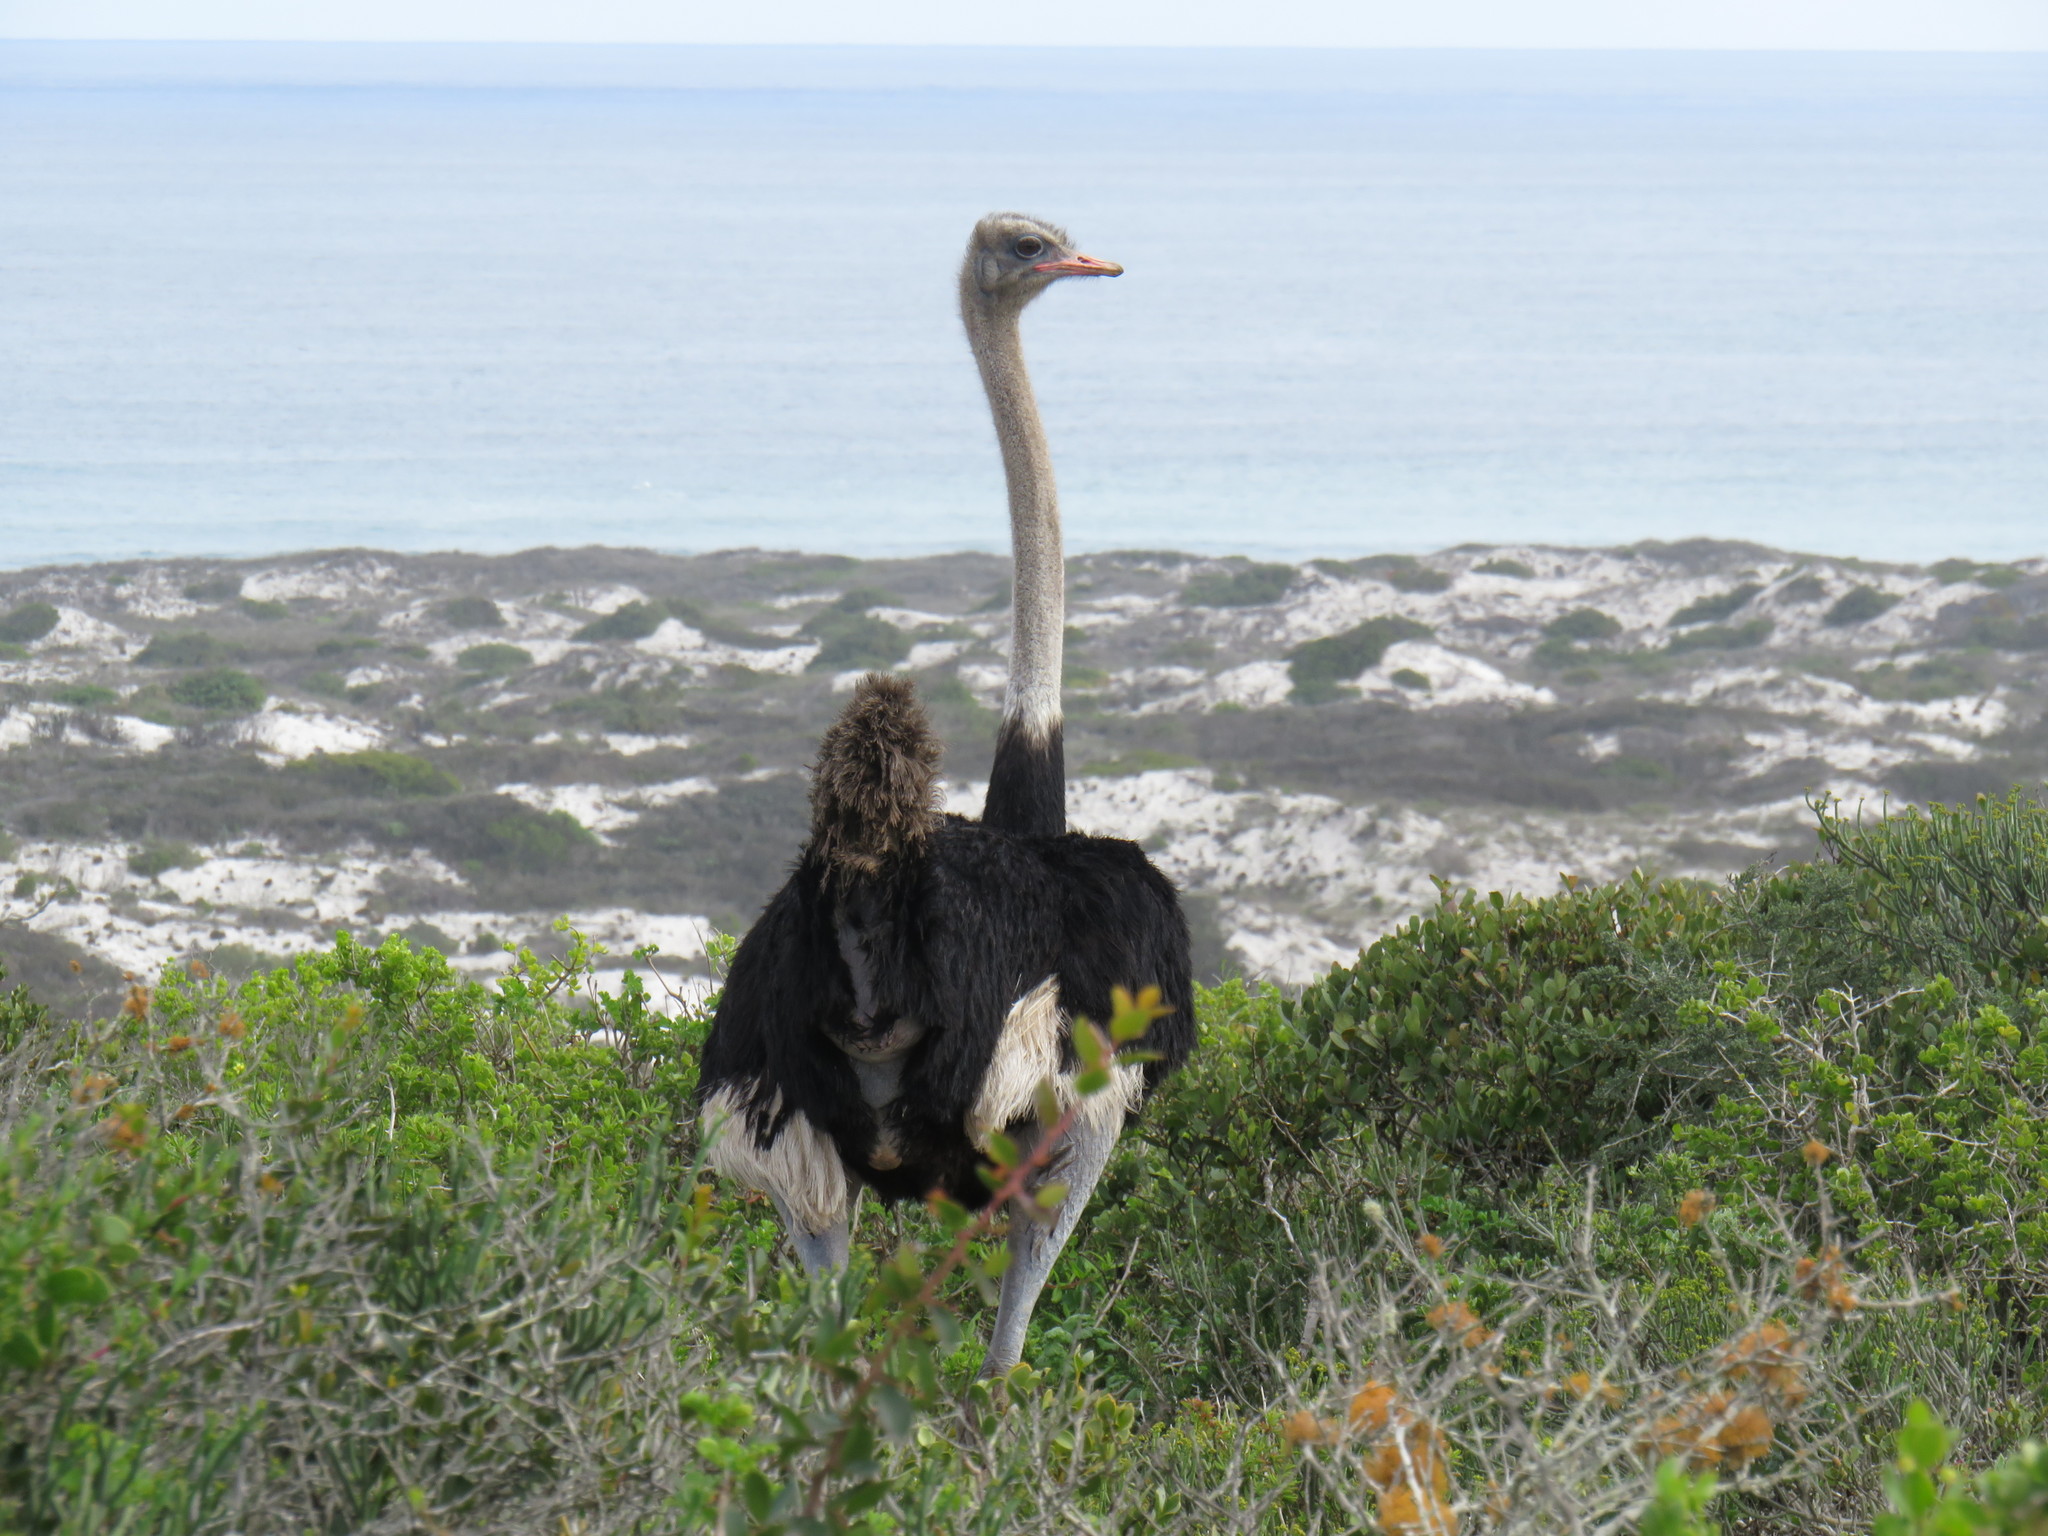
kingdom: Animalia
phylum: Chordata
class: Aves
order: Struthioniformes
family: Struthionidae
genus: Struthio
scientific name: Struthio camelus
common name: Common ostrich
